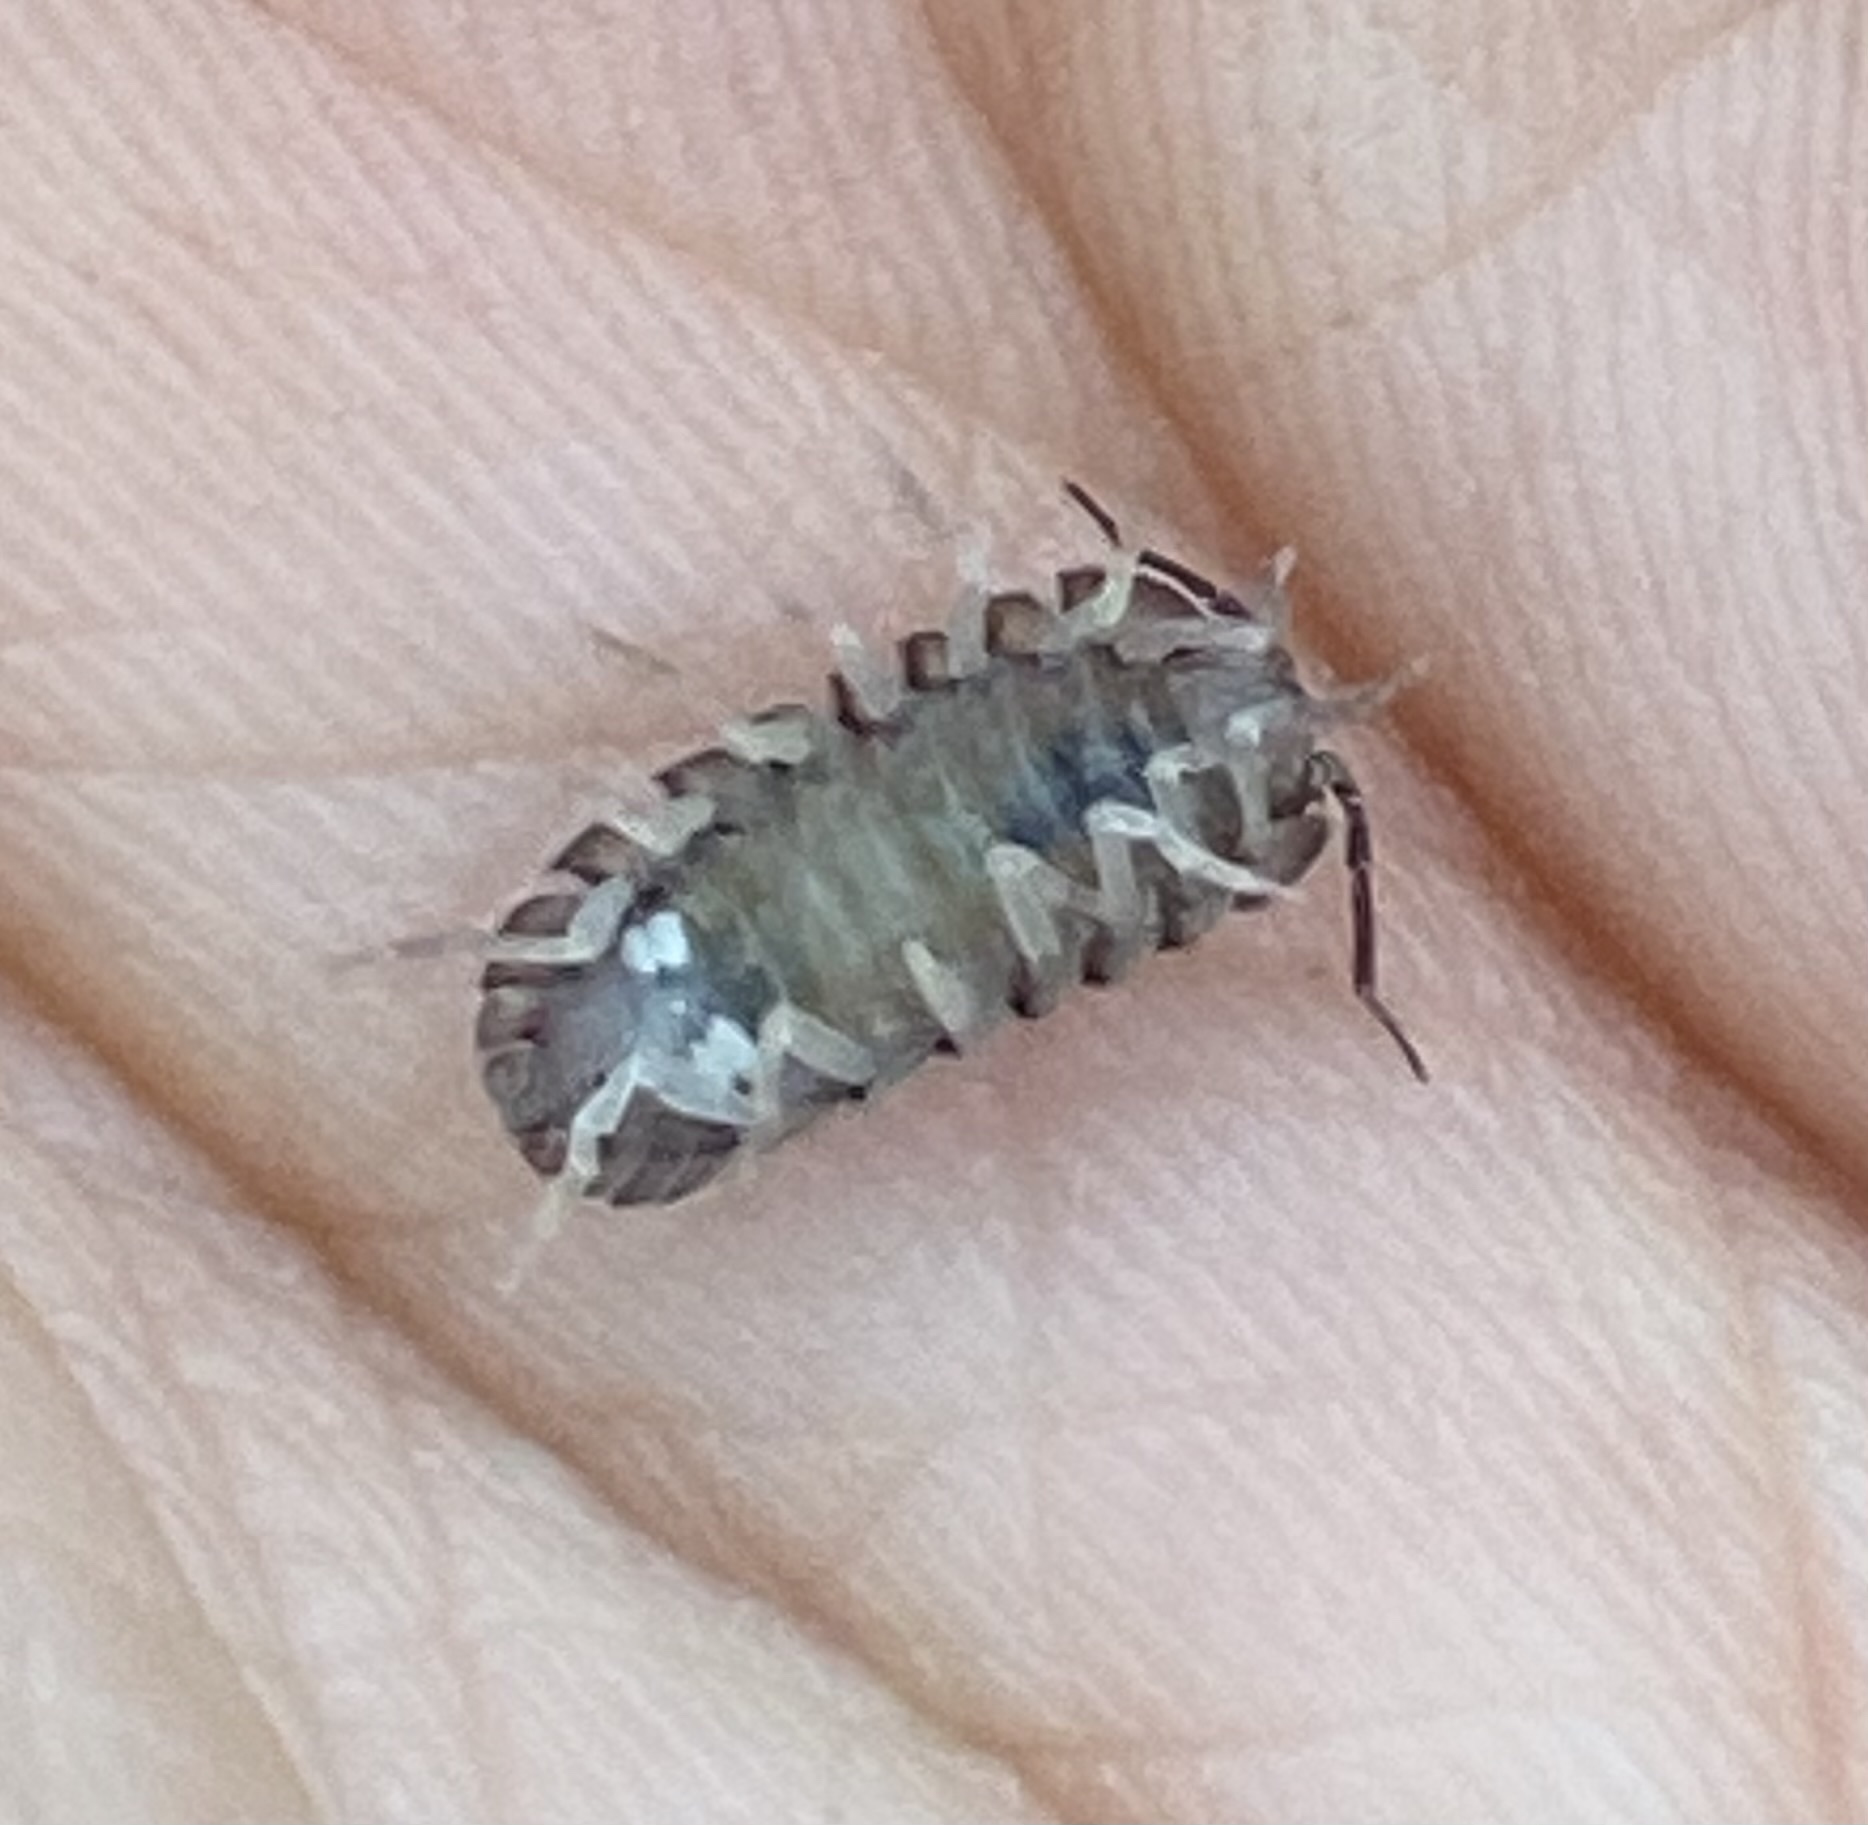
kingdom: Animalia
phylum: Arthropoda
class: Malacostraca
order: Isopoda
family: Armadillidiidae
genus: Armadillidium
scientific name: Armadillidium nasatum
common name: Isopod
